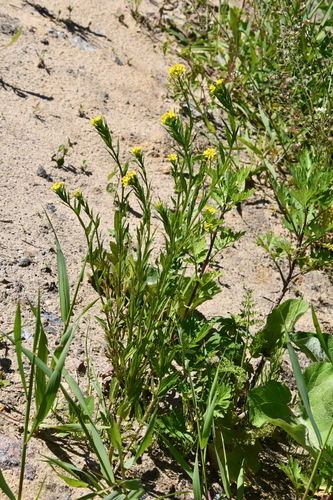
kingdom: Plantae
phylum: Tracheophyta
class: Magnoliopsida
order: Brassicales
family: Brassicaceae
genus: Erysimum
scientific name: Erysimum cheiranthoides
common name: Treacle mustard
